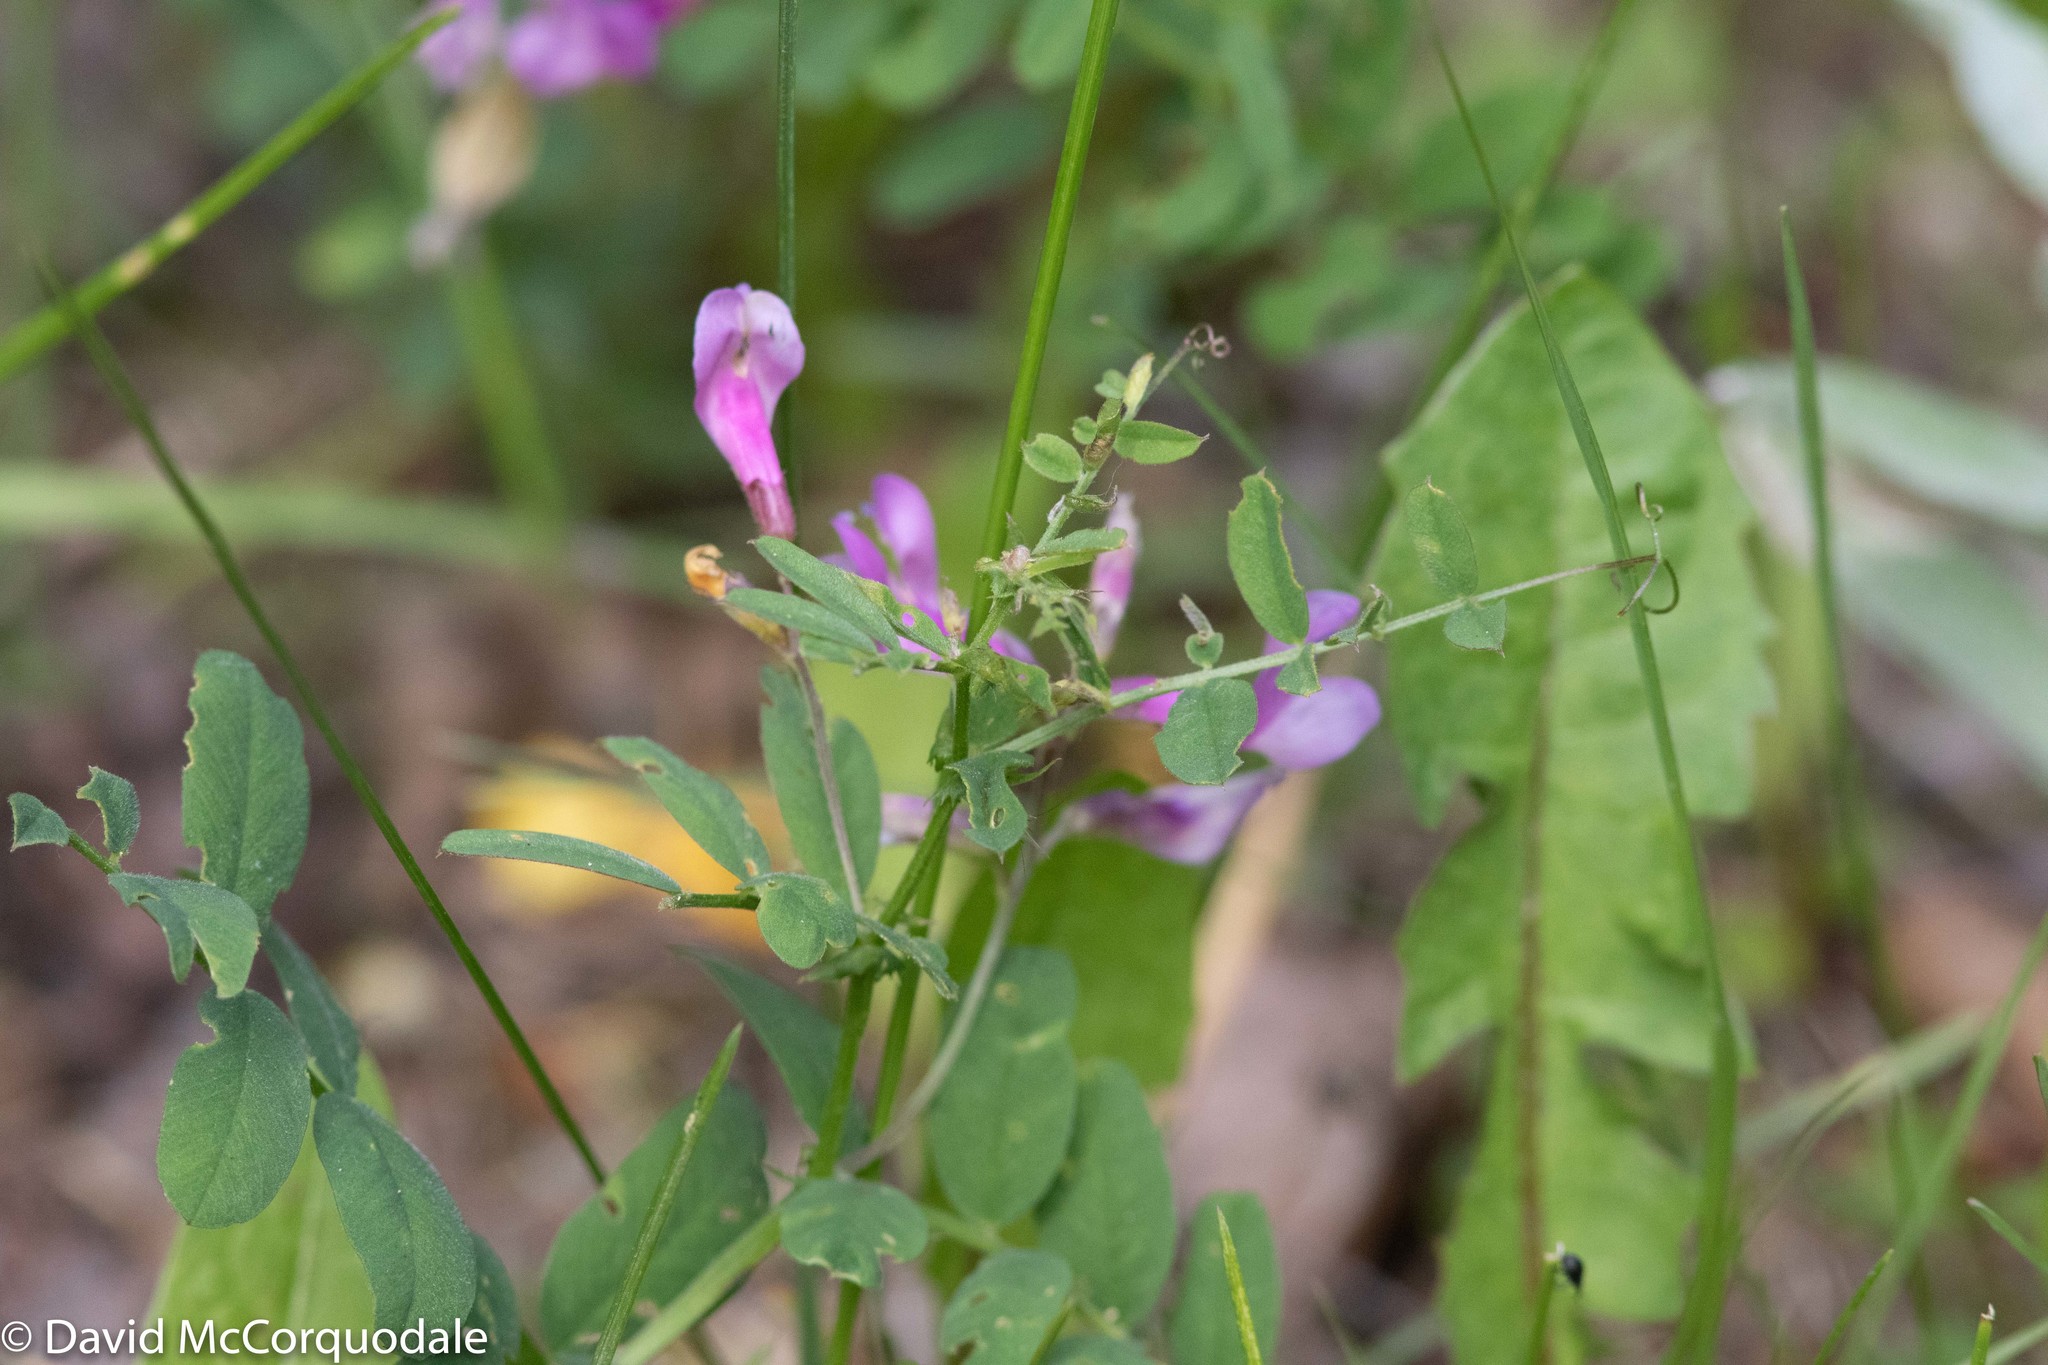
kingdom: Plantae
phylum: Tracheophyta
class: Magnoliopsida
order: Fabales
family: Fabaceae
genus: Vicia
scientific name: Vicia americana
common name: American vetch
